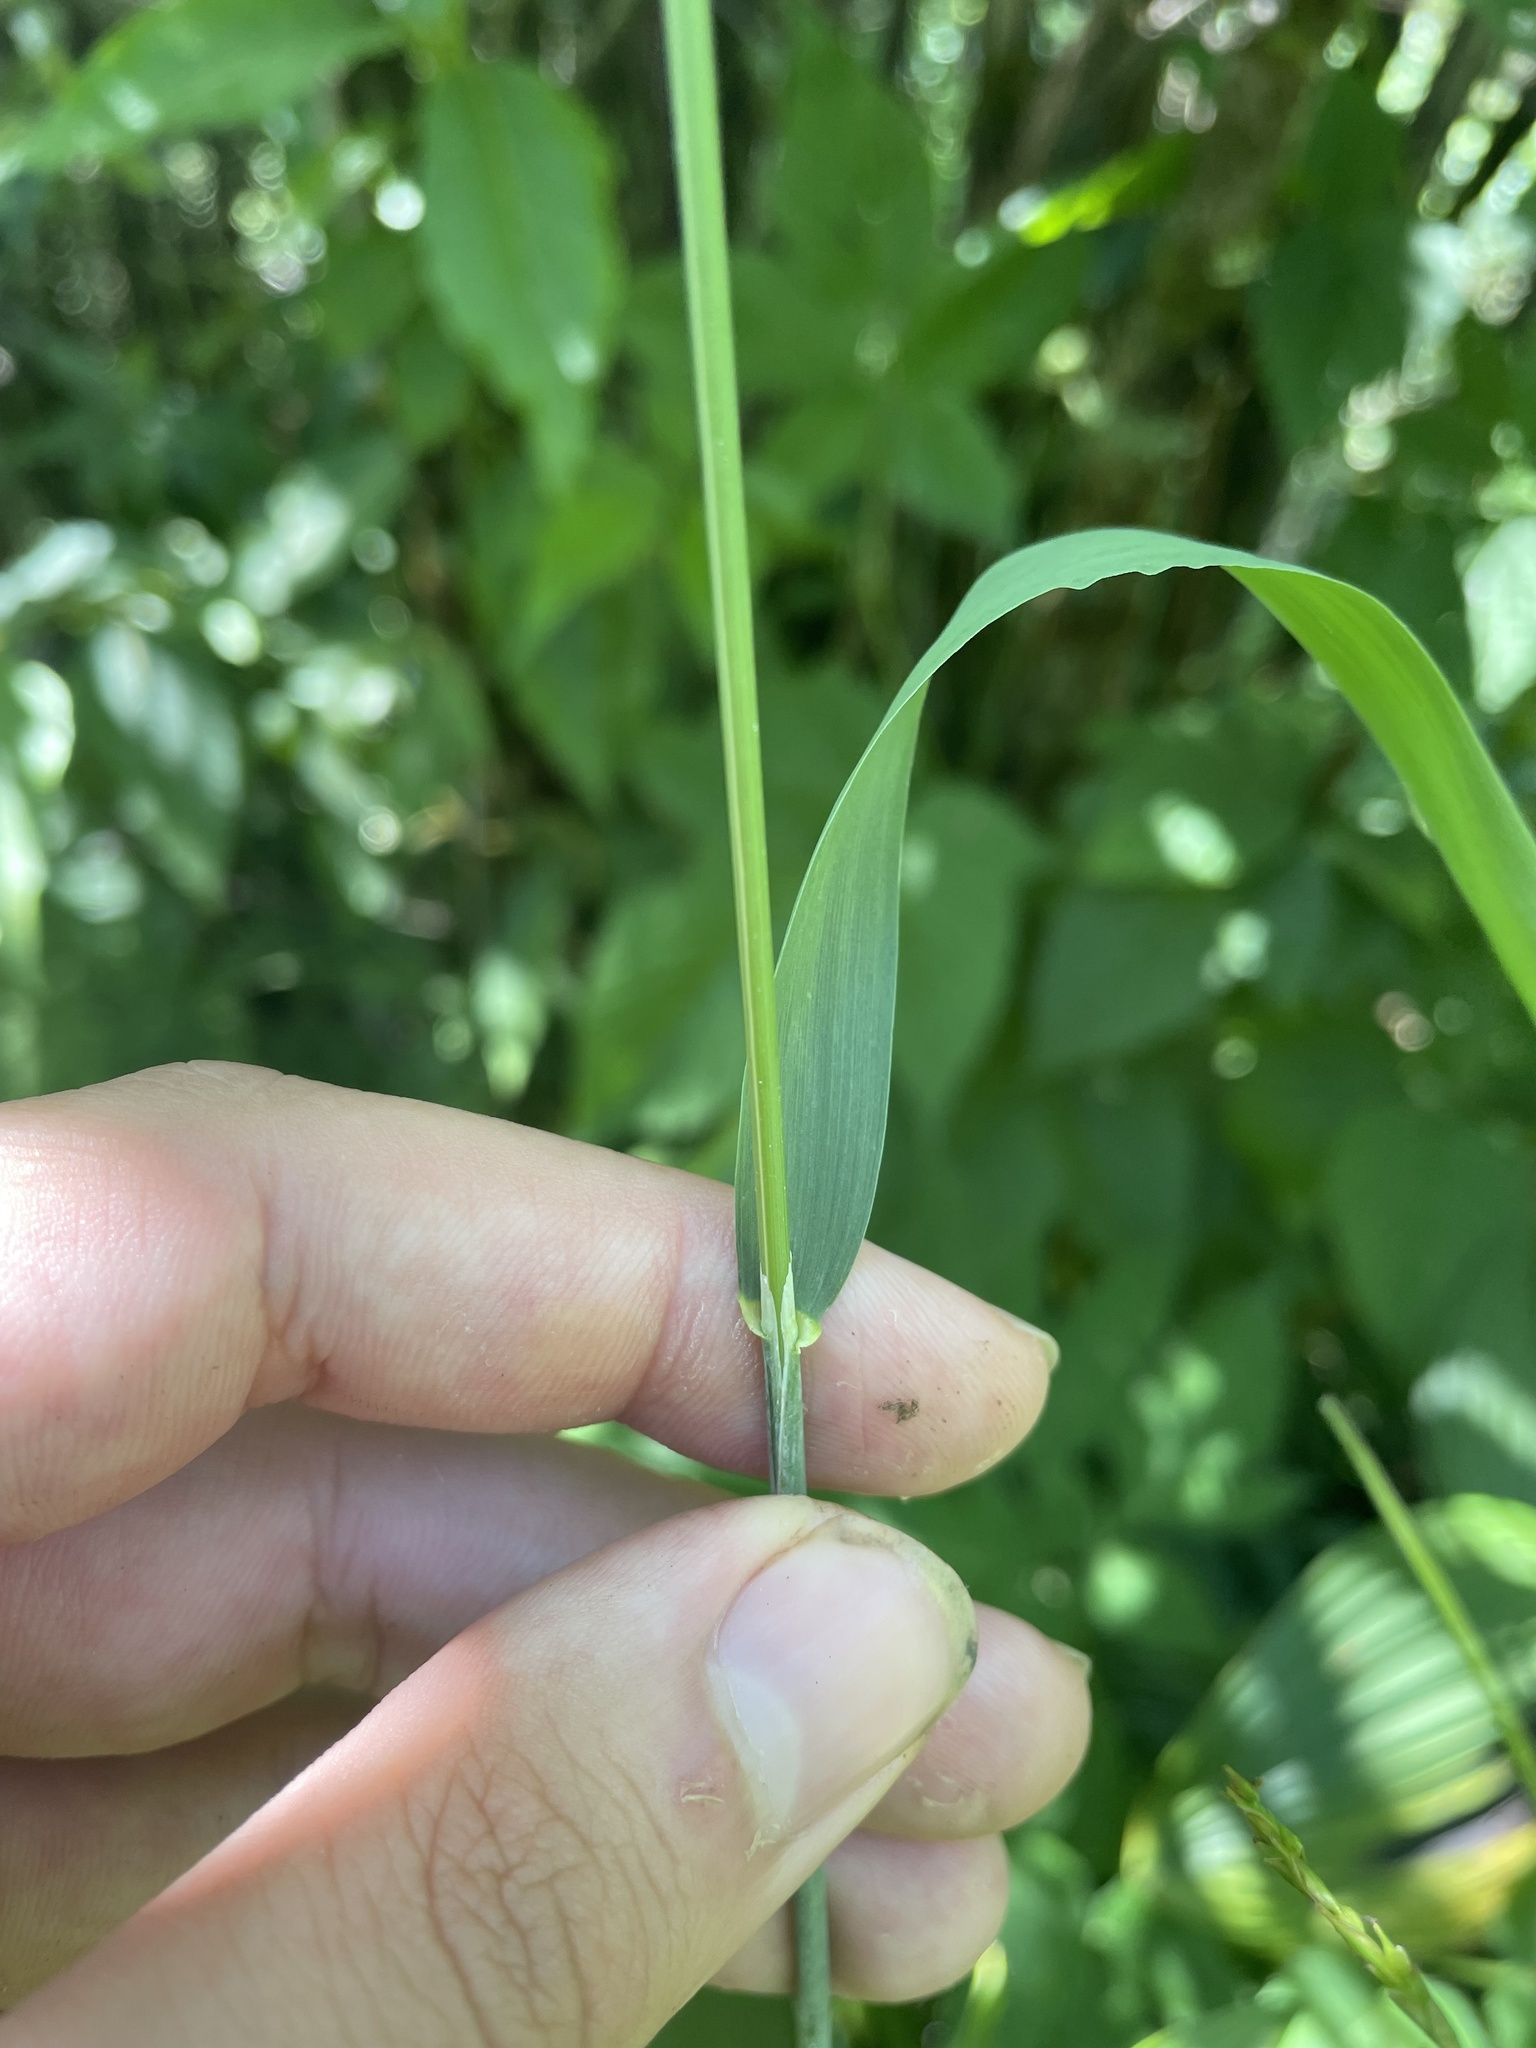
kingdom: Plantae
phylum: Tracheophyta
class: Liliopsida
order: Poales
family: Poaceae
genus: Milium
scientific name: Milium effusum
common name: Wood millet
